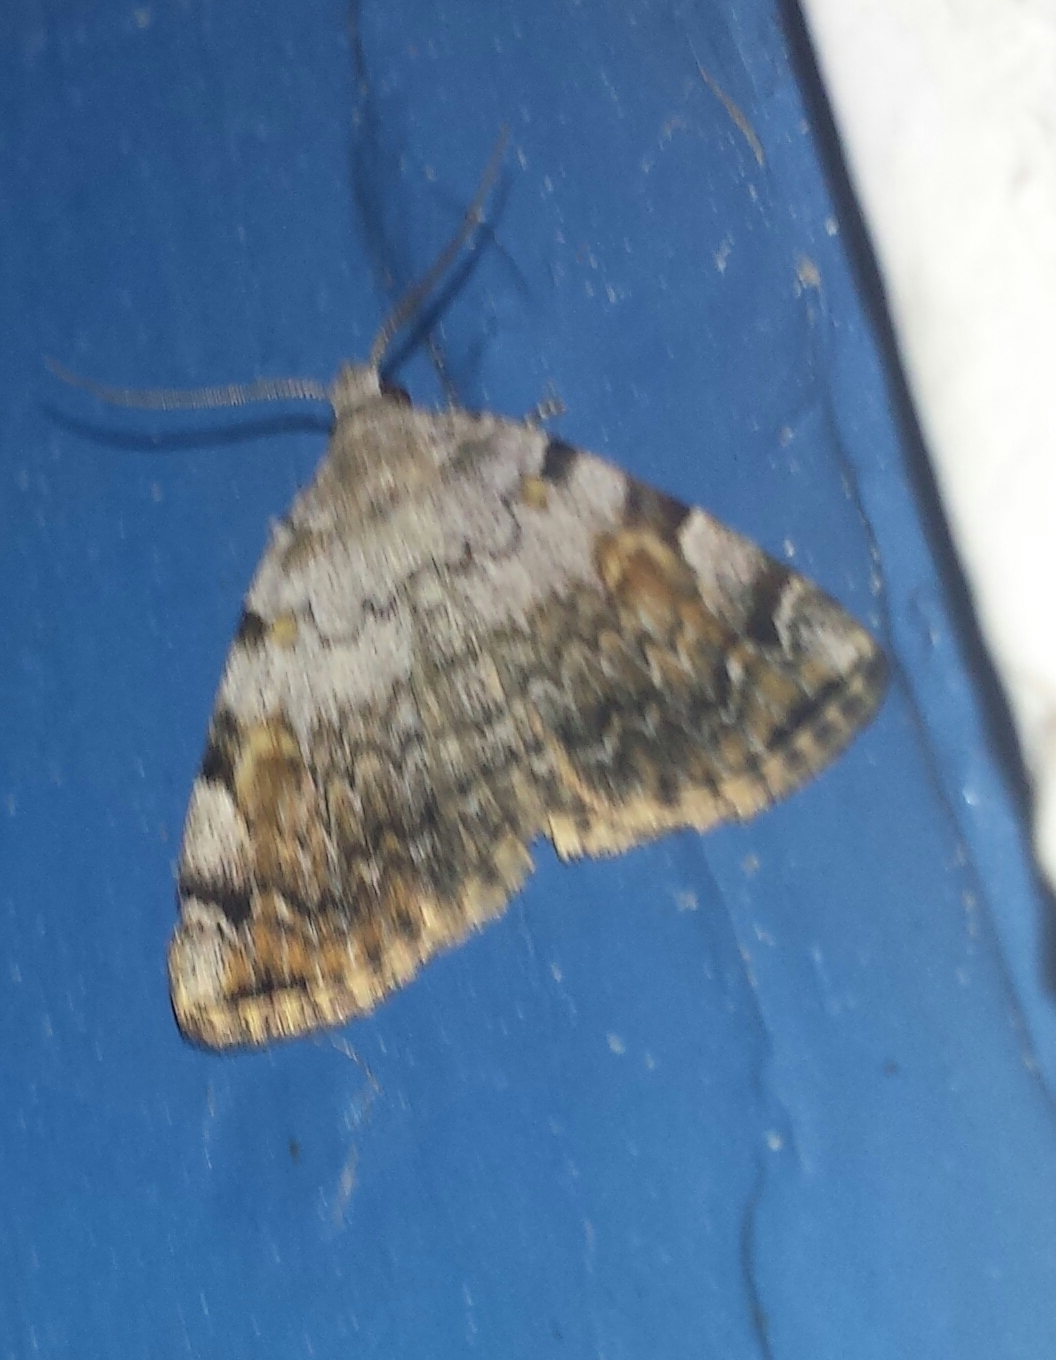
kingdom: Animalia
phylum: Arthropoda
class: Insecta
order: Lepidoptera
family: Erebidae
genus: Idia
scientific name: Idia americalis
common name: American idia moth
